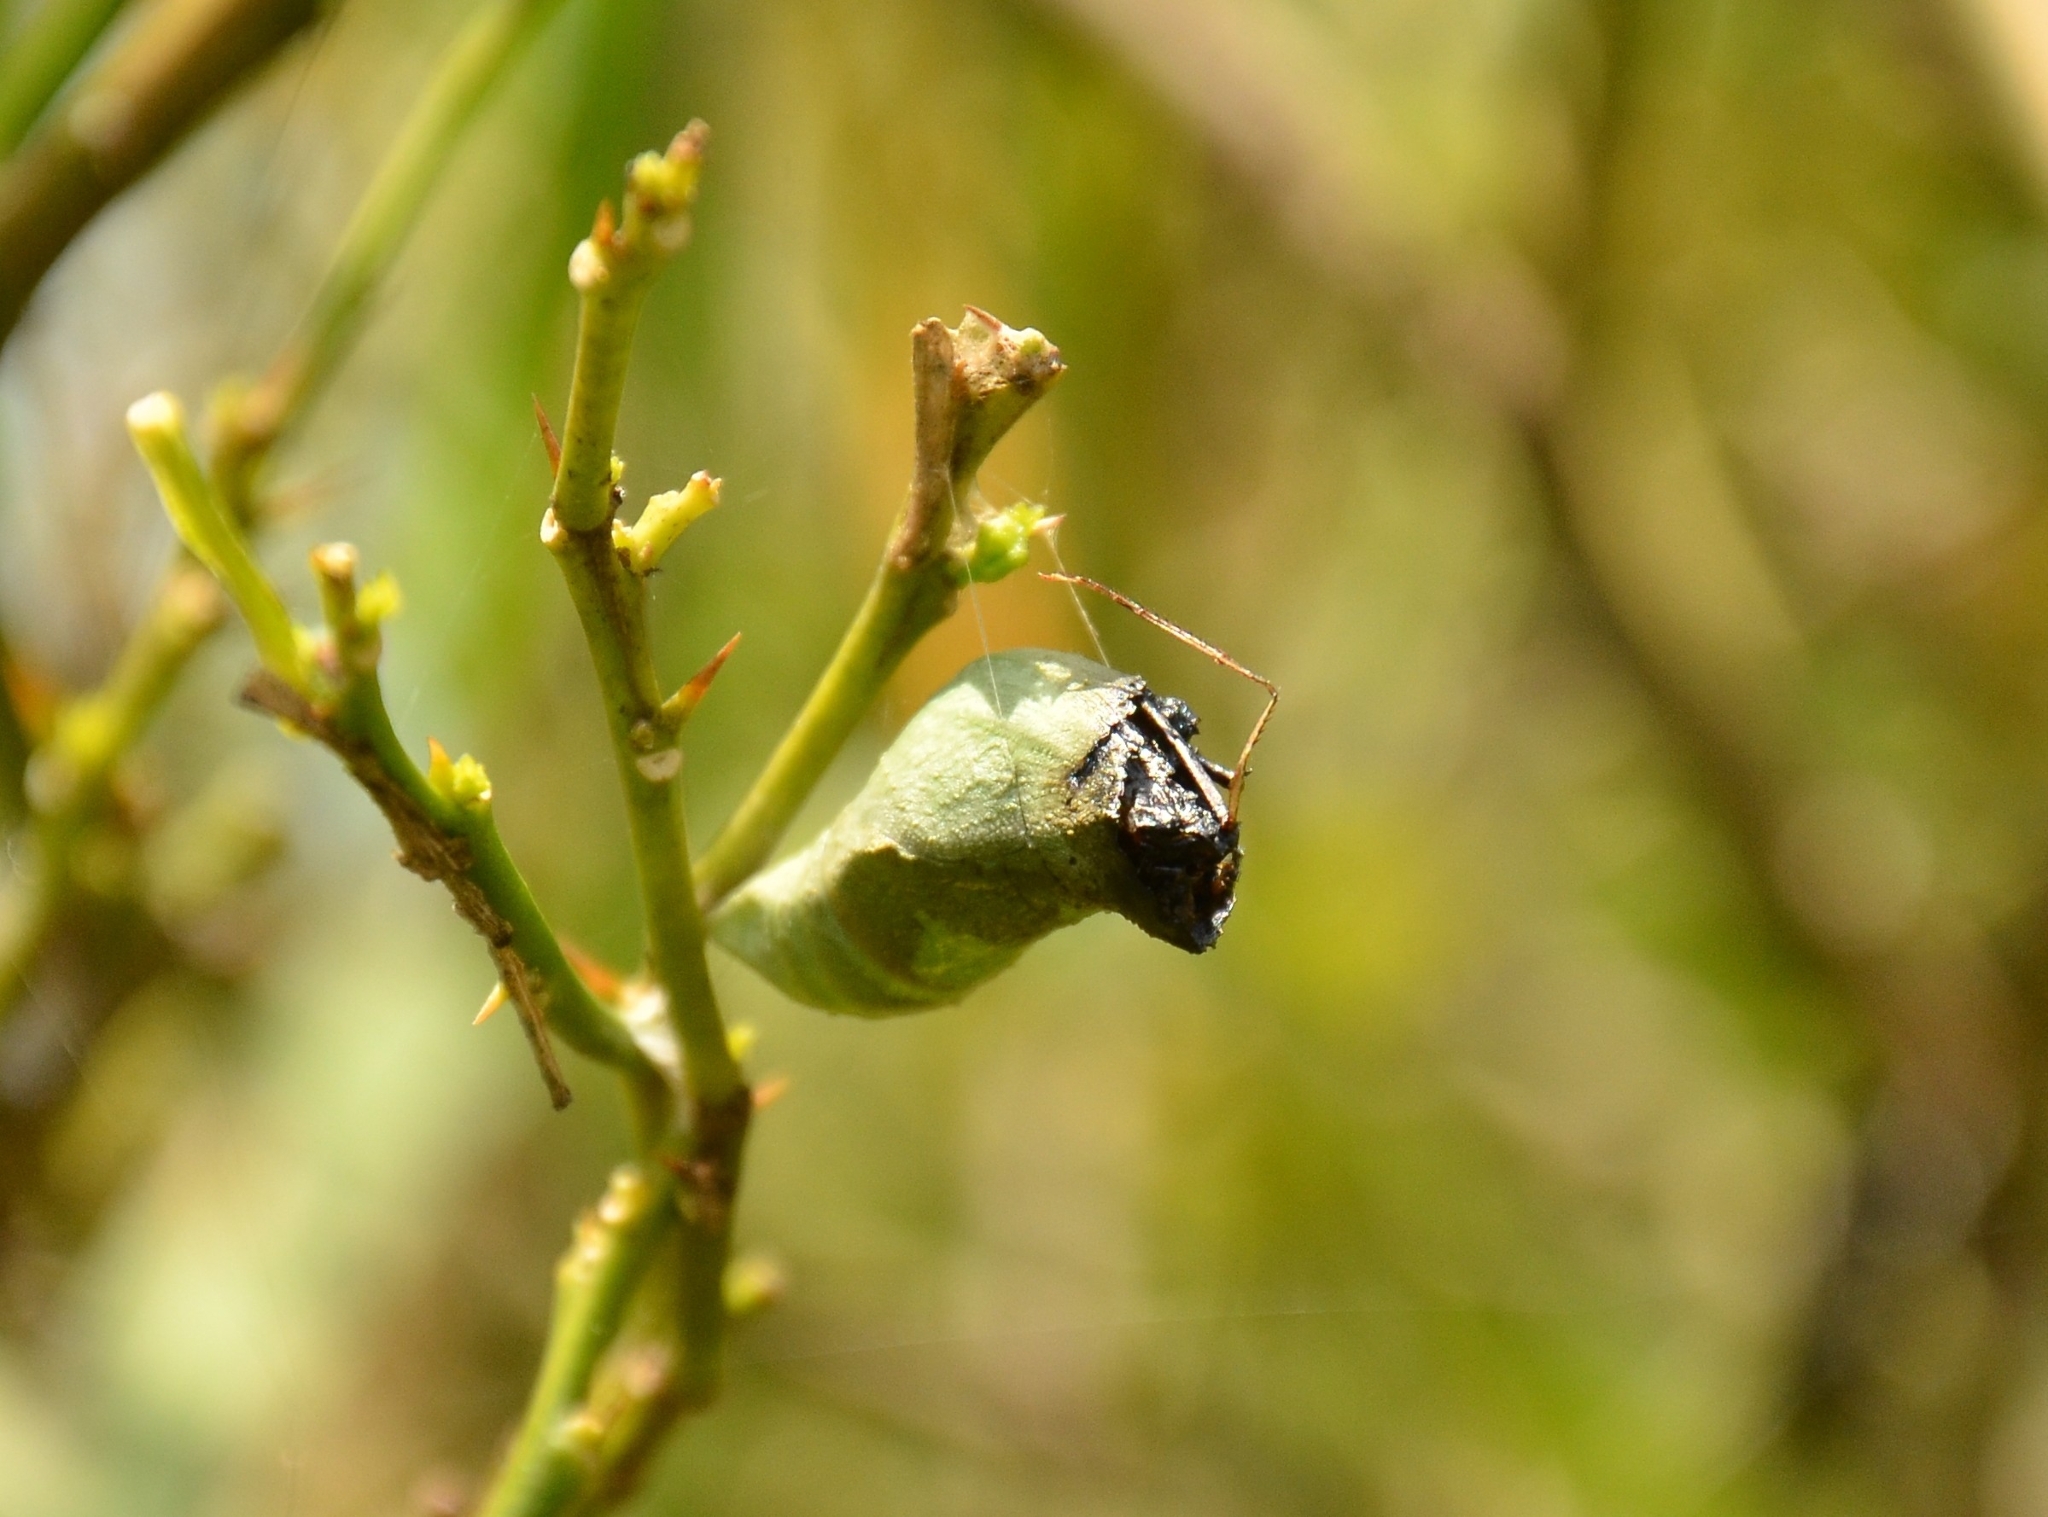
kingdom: Animalia
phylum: Arthropoda
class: Insecta
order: Lepidoptera
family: Papilionidae
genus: Papilio
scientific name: Papilio polytes
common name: Common mormon
